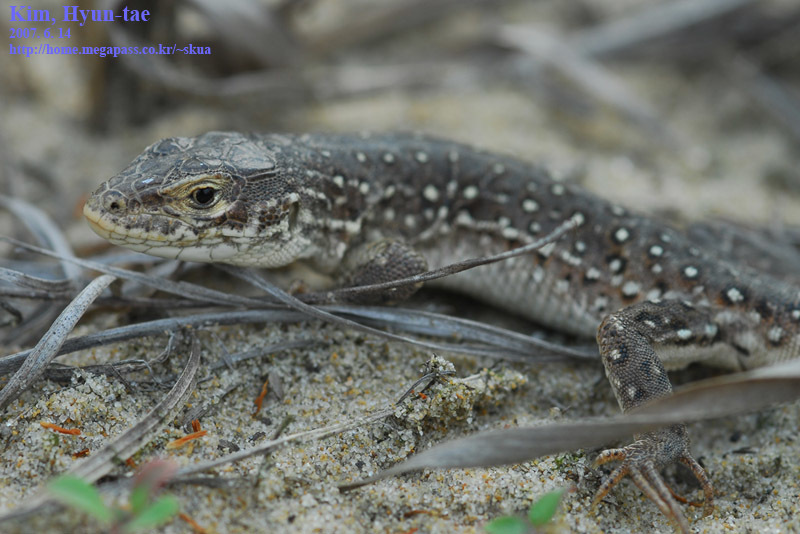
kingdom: Animalia
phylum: Chordata
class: Squamata
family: Lacertidae
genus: Eremias
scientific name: Eremias argus
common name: Mongolia racerunner
